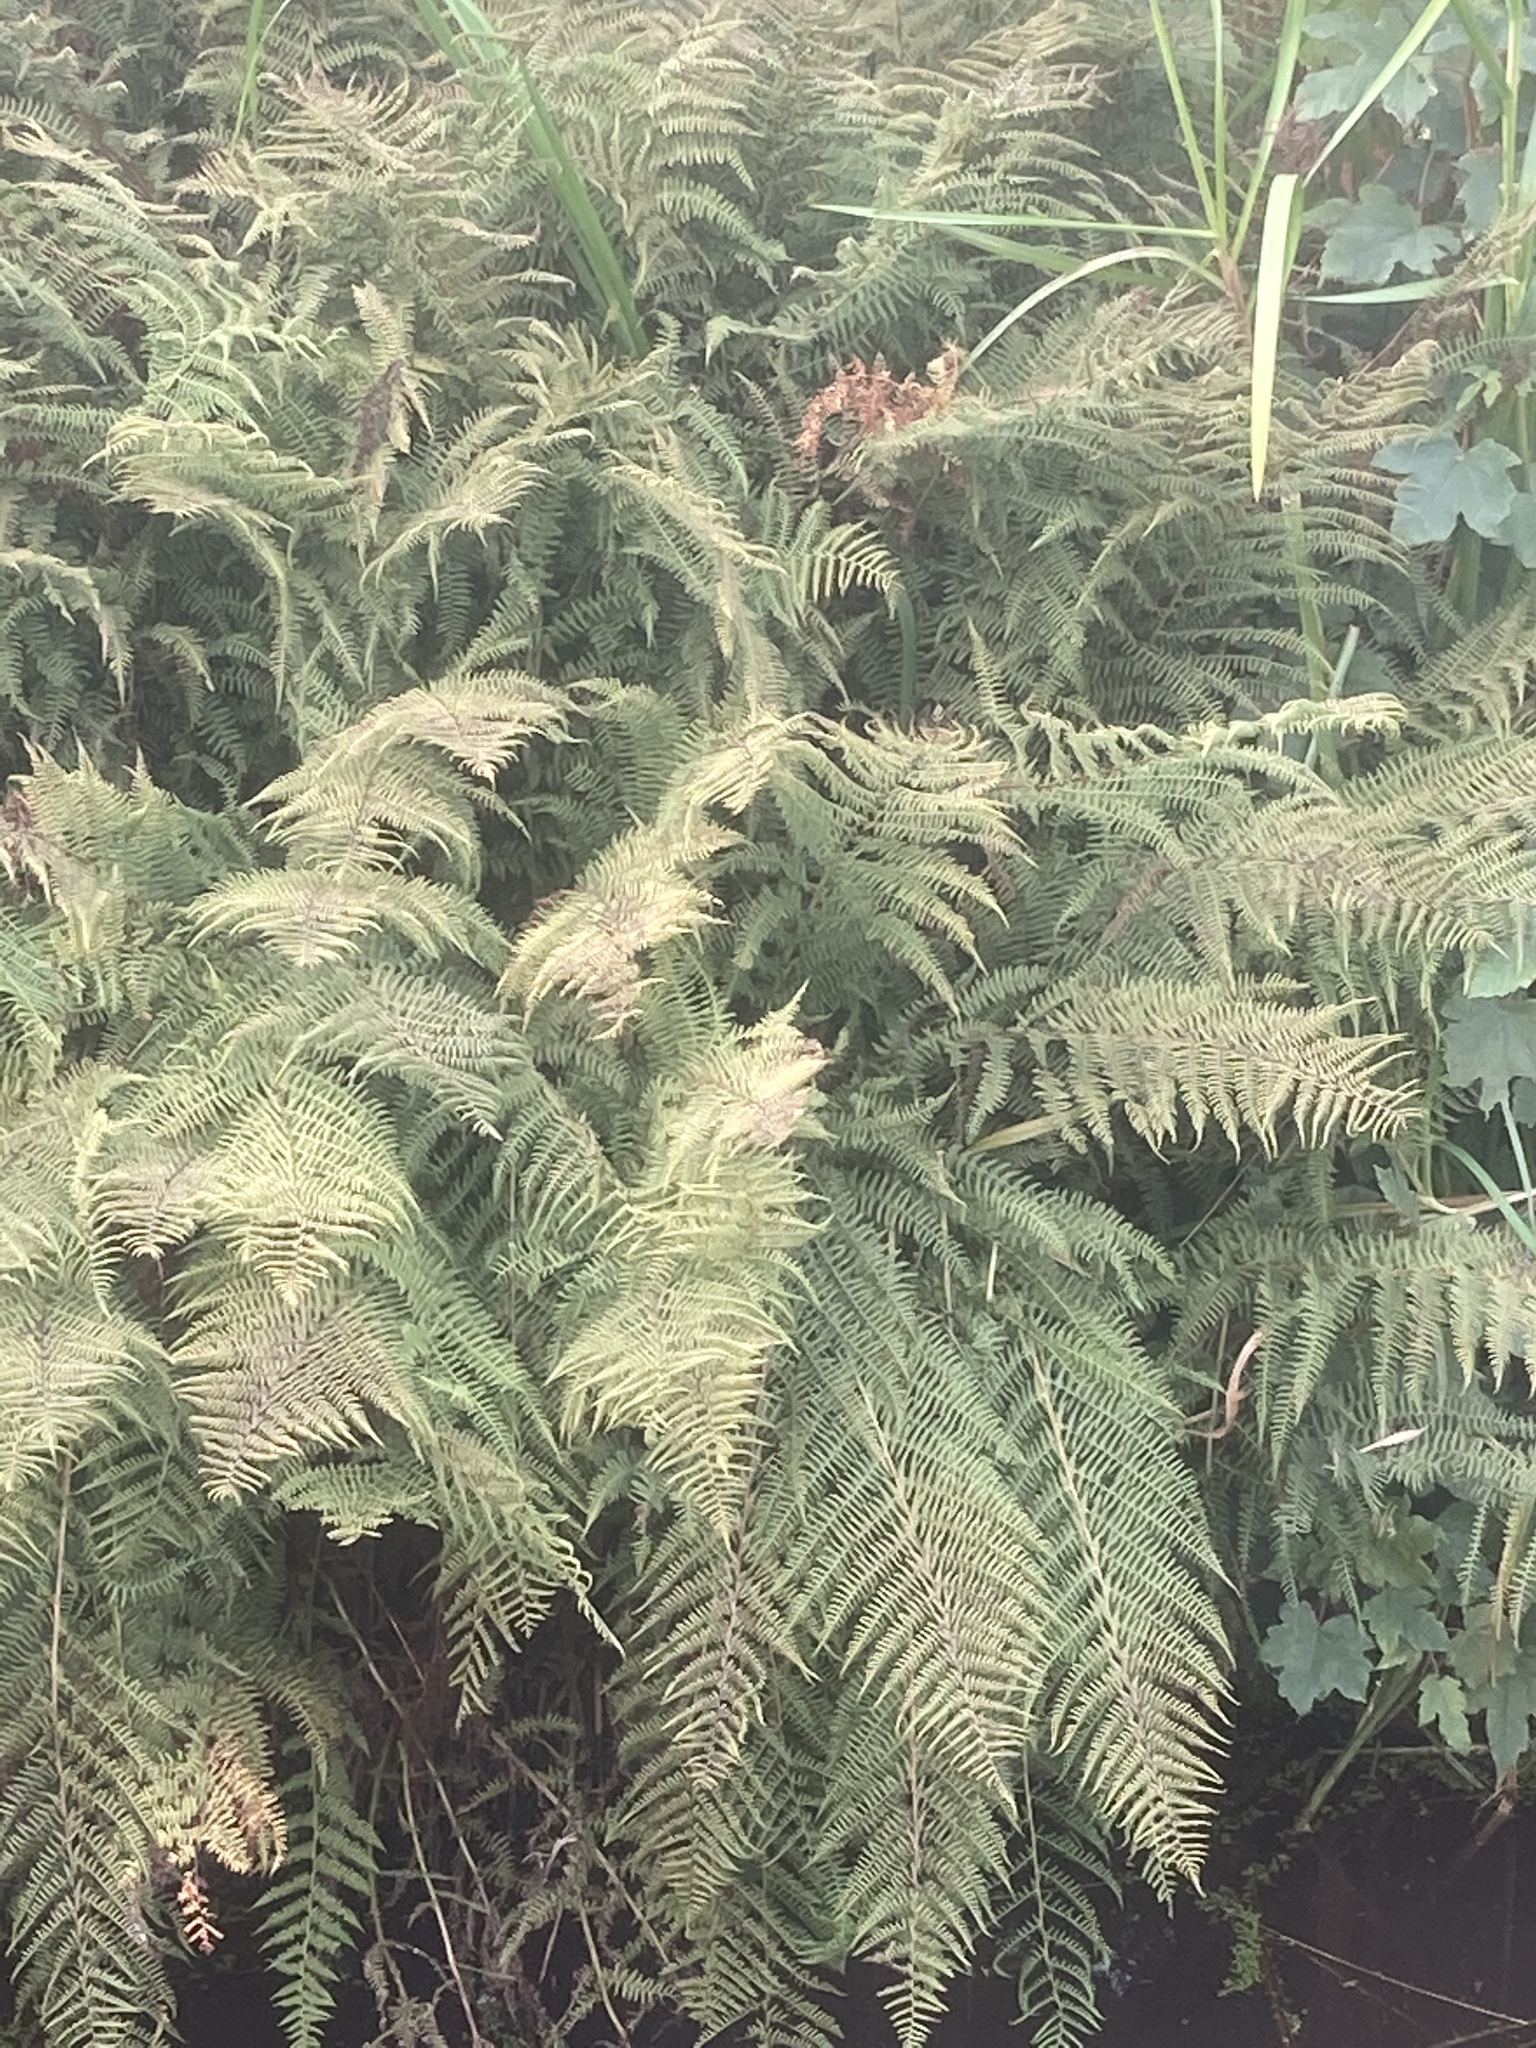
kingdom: Plantae
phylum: Tracheophyta
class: Polypodiopsida
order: Polypodiales
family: Athyriaceae
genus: Athyrium
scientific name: Athyrium filix-femina
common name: Lady fern
